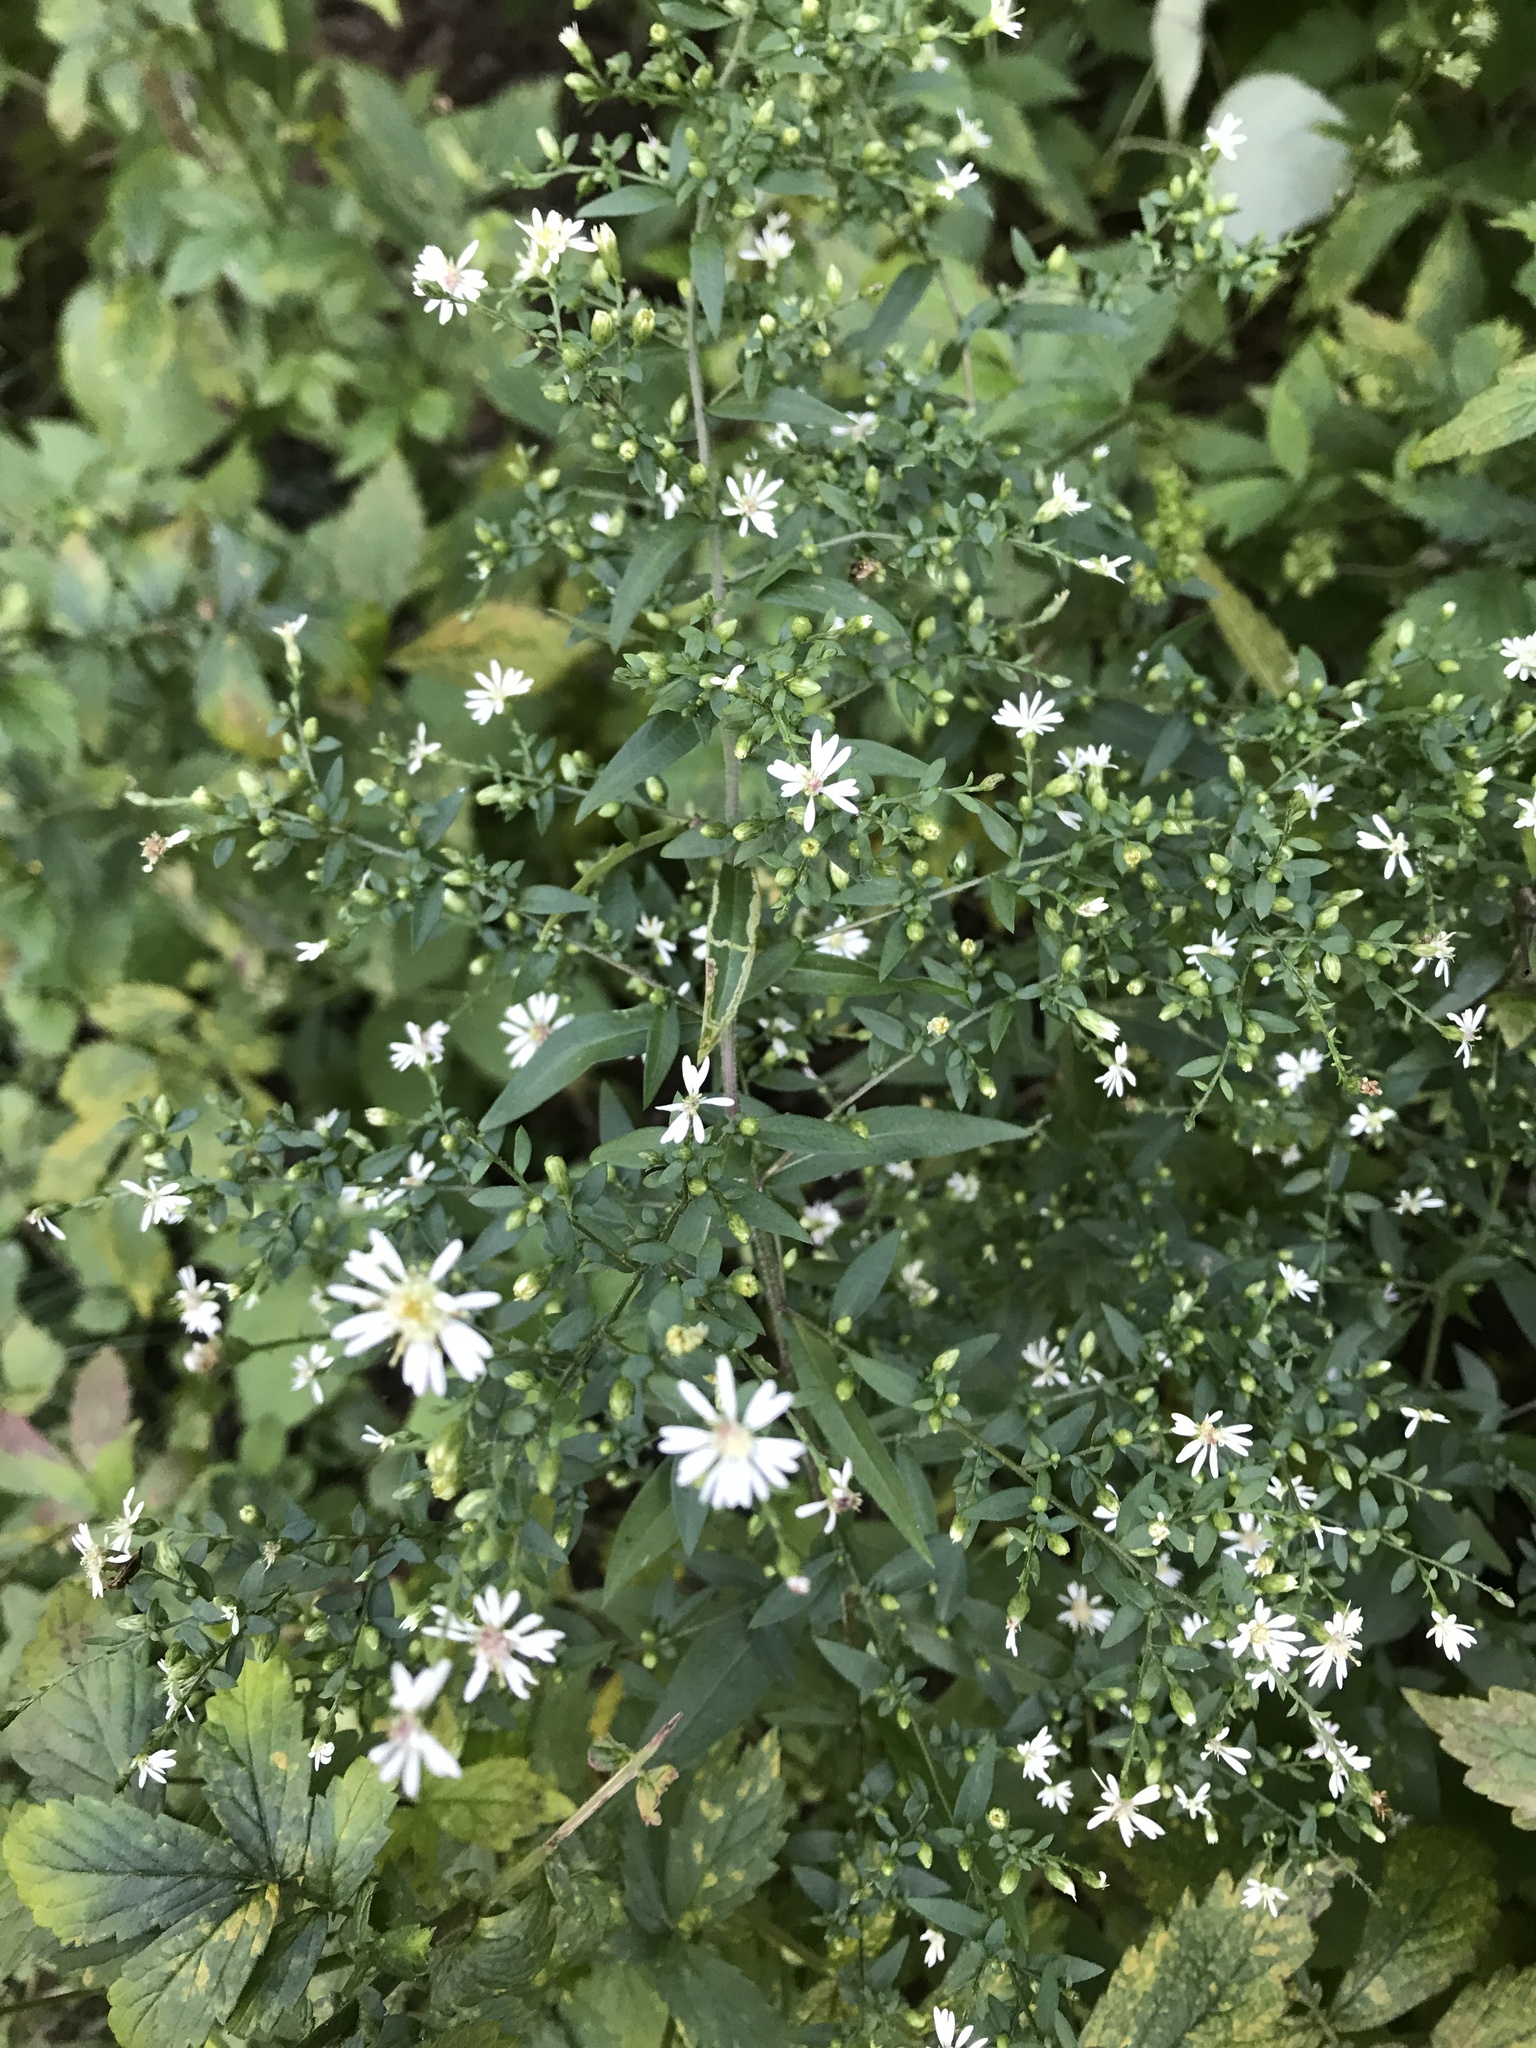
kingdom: Plantae
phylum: Tracheophyta
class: Magnoliopsida
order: Asterales
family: Asteraceae
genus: Symphyotrichum
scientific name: Symphyotrichum
